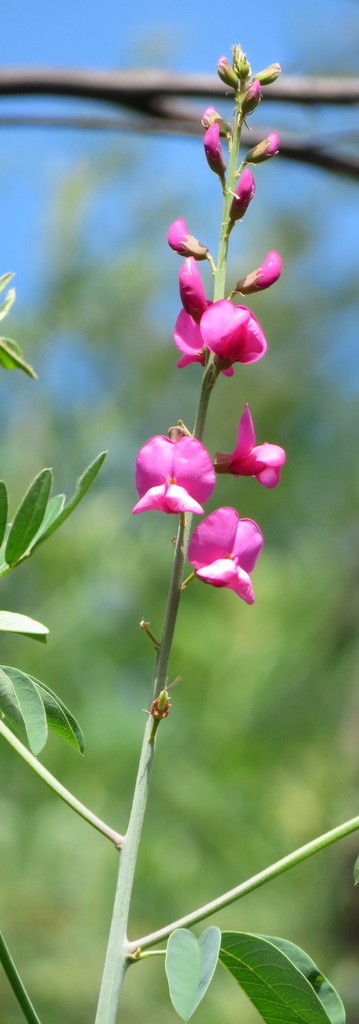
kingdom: Plantae
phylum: Tracheophyta
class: Magnoliopsida
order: Fabales
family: Fabaceae
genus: Hypocalyptus
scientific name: Hypocalyptus coluteoides
